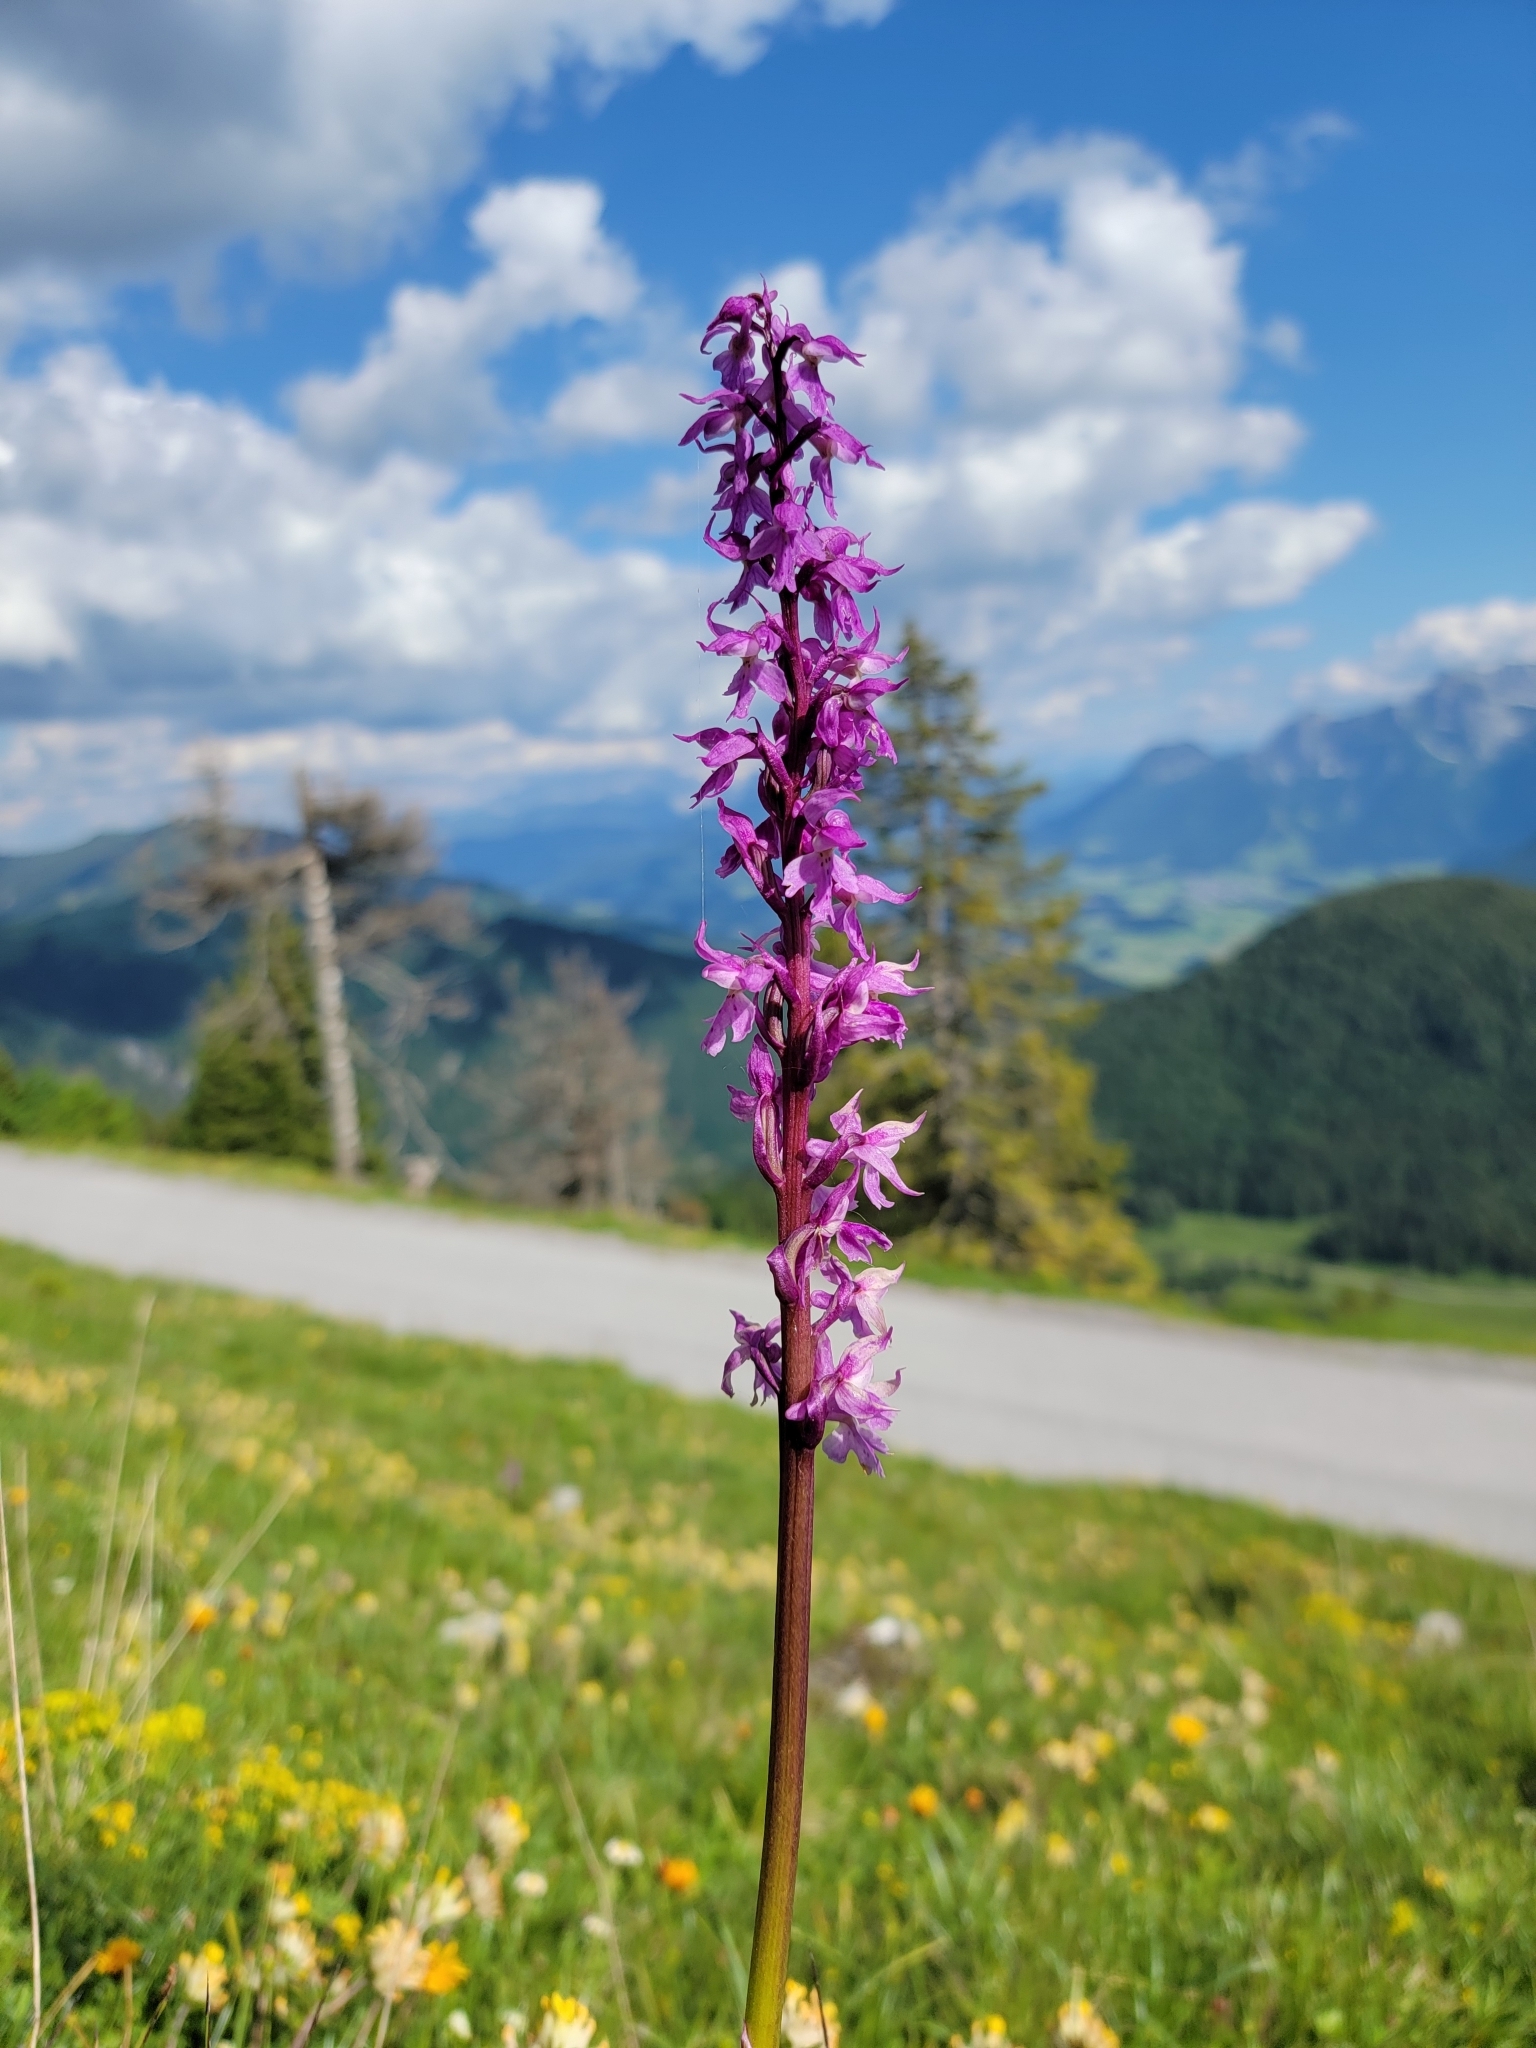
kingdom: Plantae
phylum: Tracheophyta
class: Liliopsida
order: Asparagales
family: Orchidaceae
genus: Orchis
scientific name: Orchis mascula
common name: Early-purple orchid
